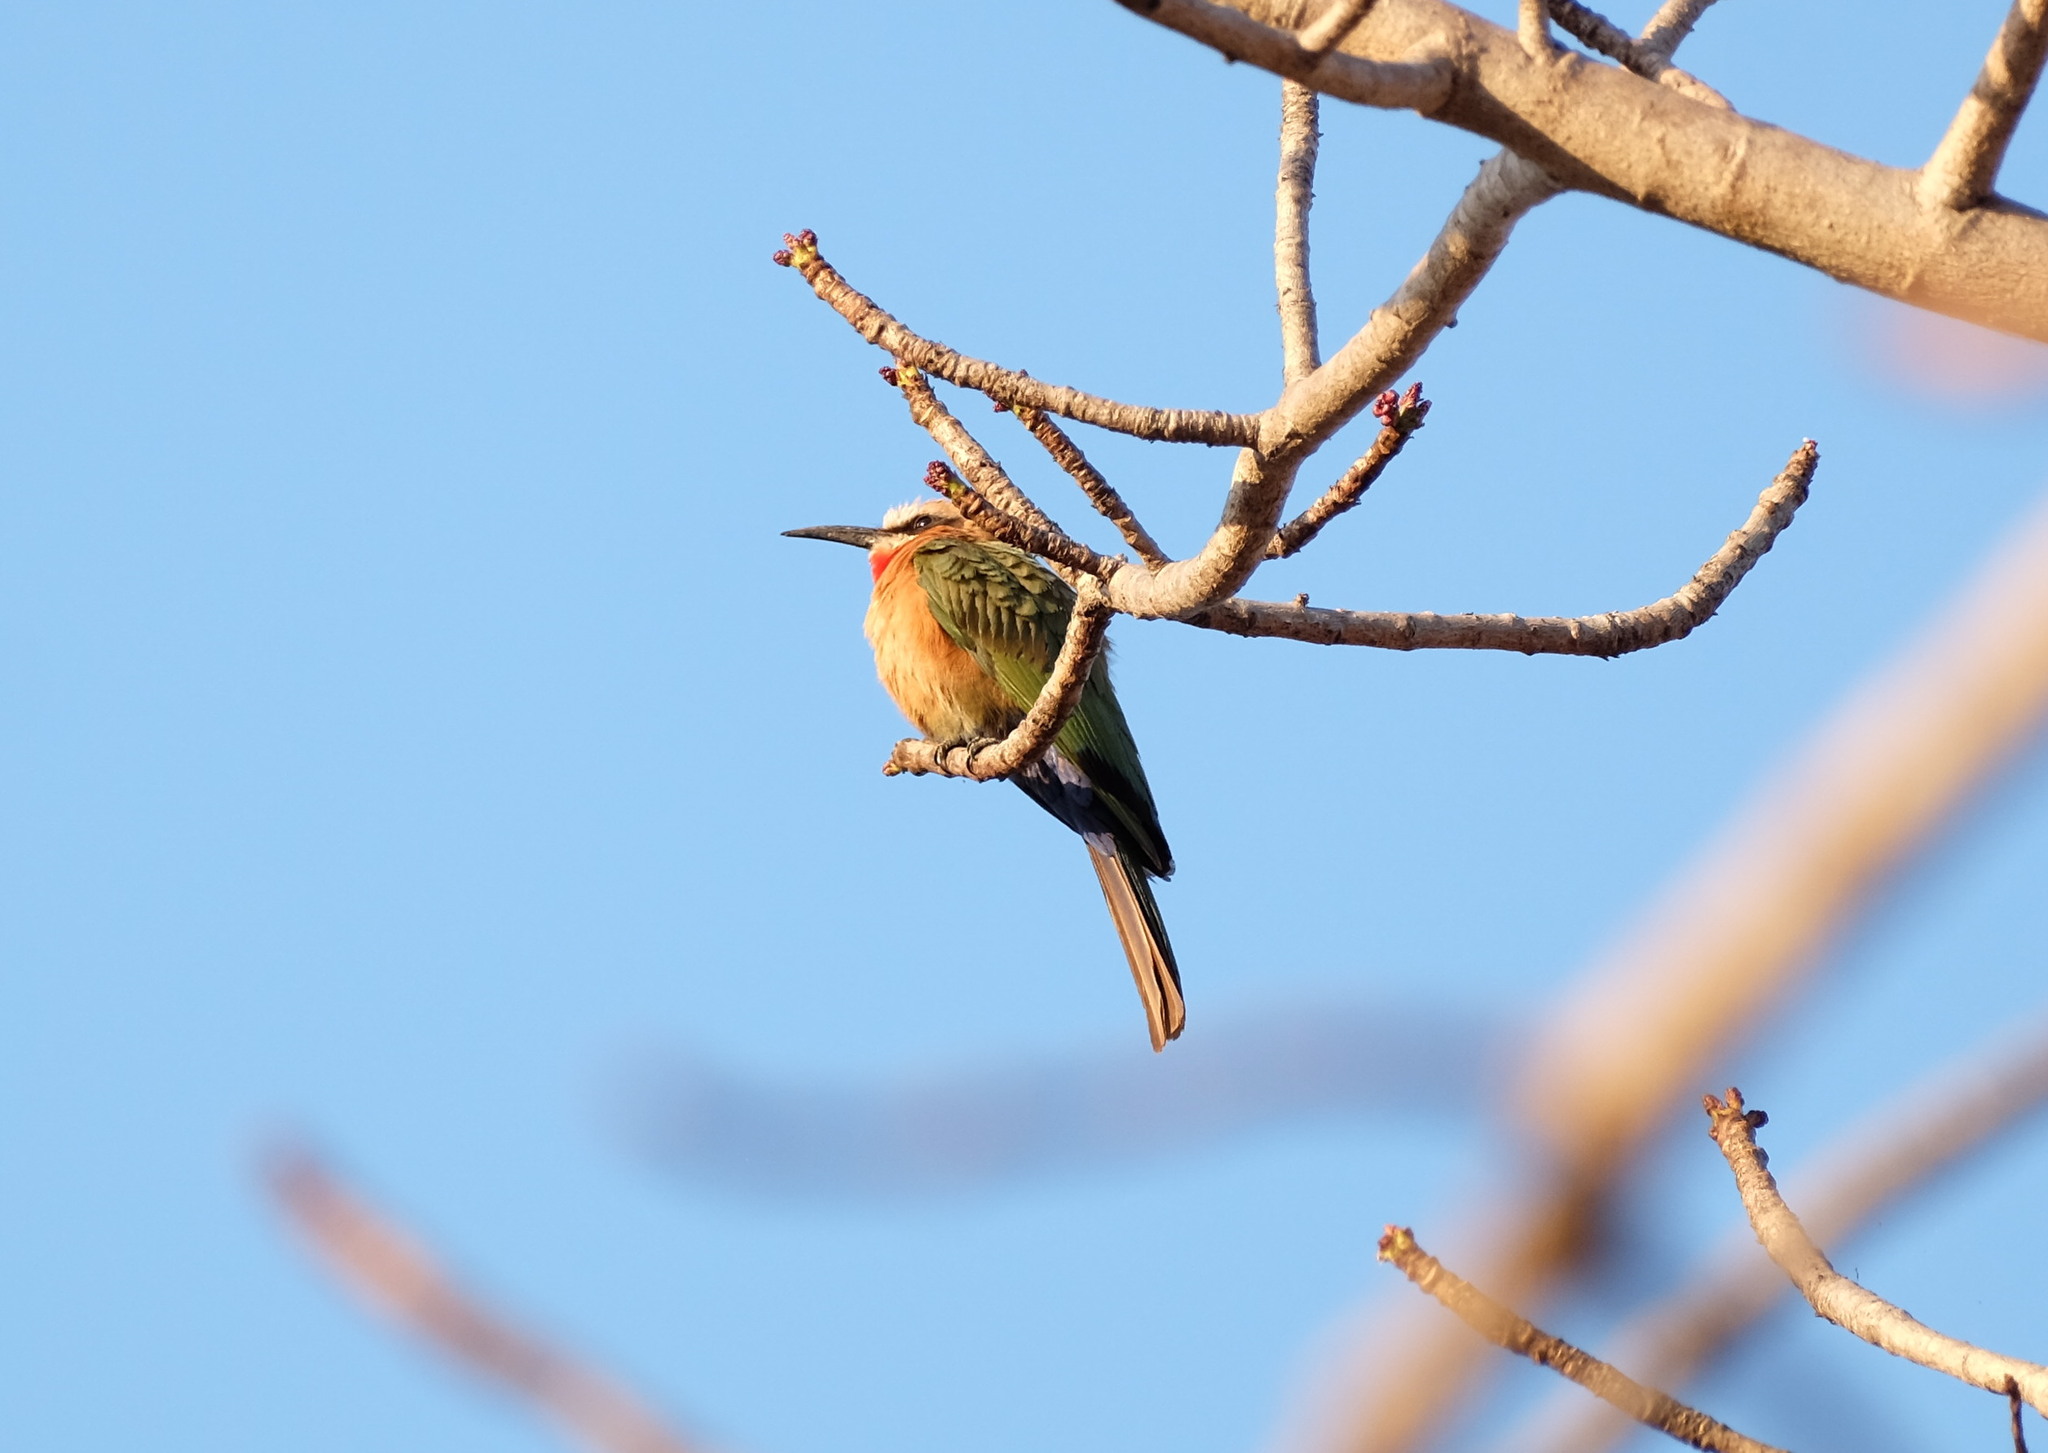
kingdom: Animalia
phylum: Chordata
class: Aves
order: Coraciiformes
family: Meropidae
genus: Merops
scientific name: Merops bullockoides
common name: White-fronted bee-eater
